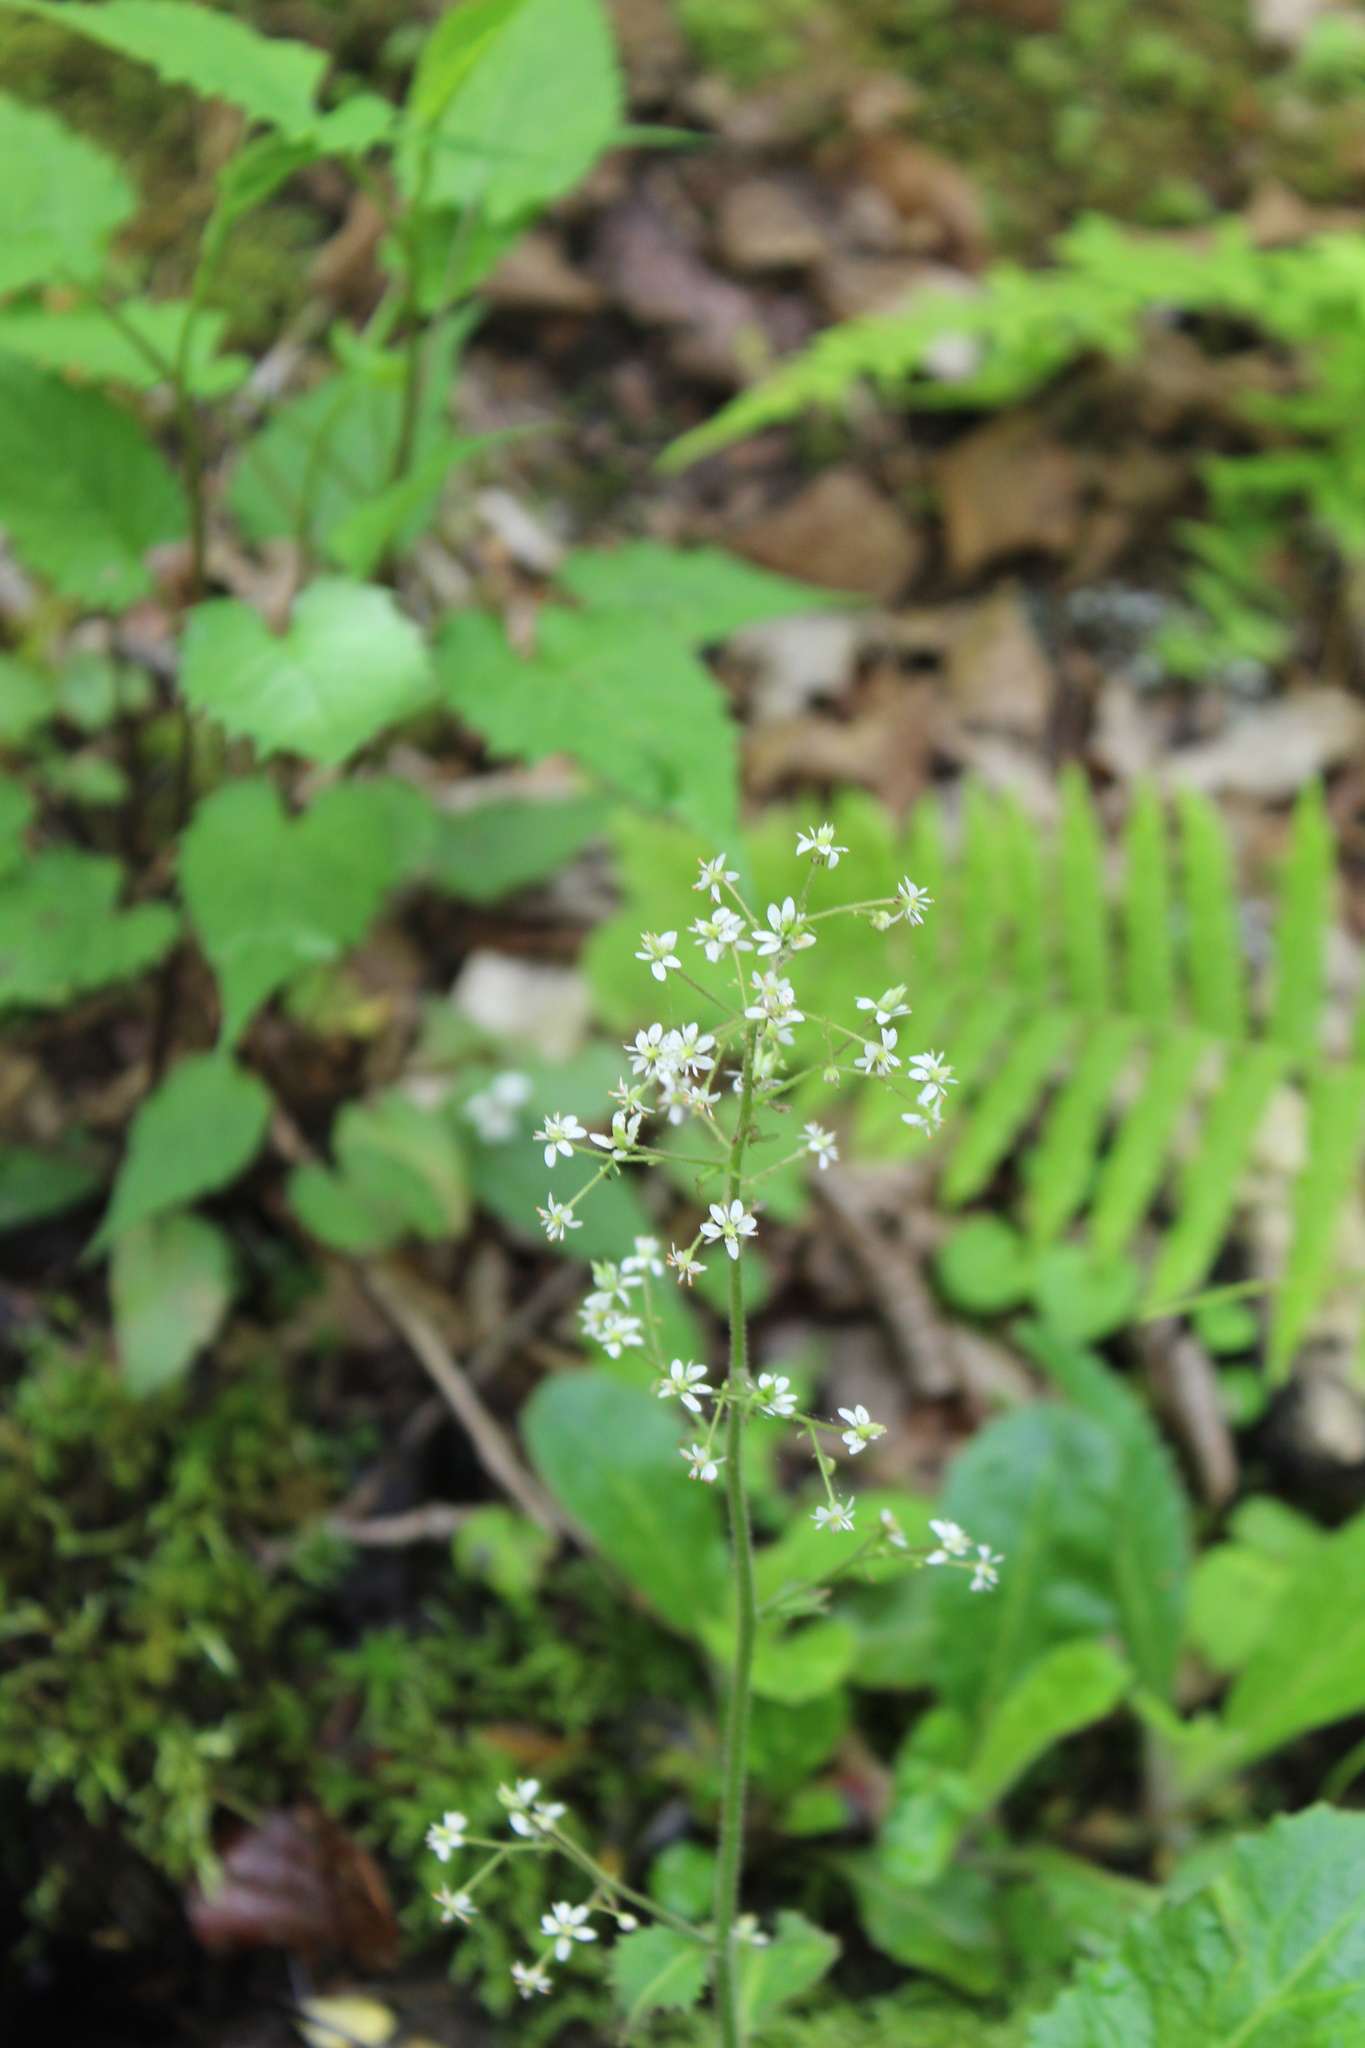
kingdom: Plantae
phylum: Tracheophyta
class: Magnoliopsida
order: Saxifragales
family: Saxifragaceae
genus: Micranthes
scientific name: Micranthes micranthidifolia
